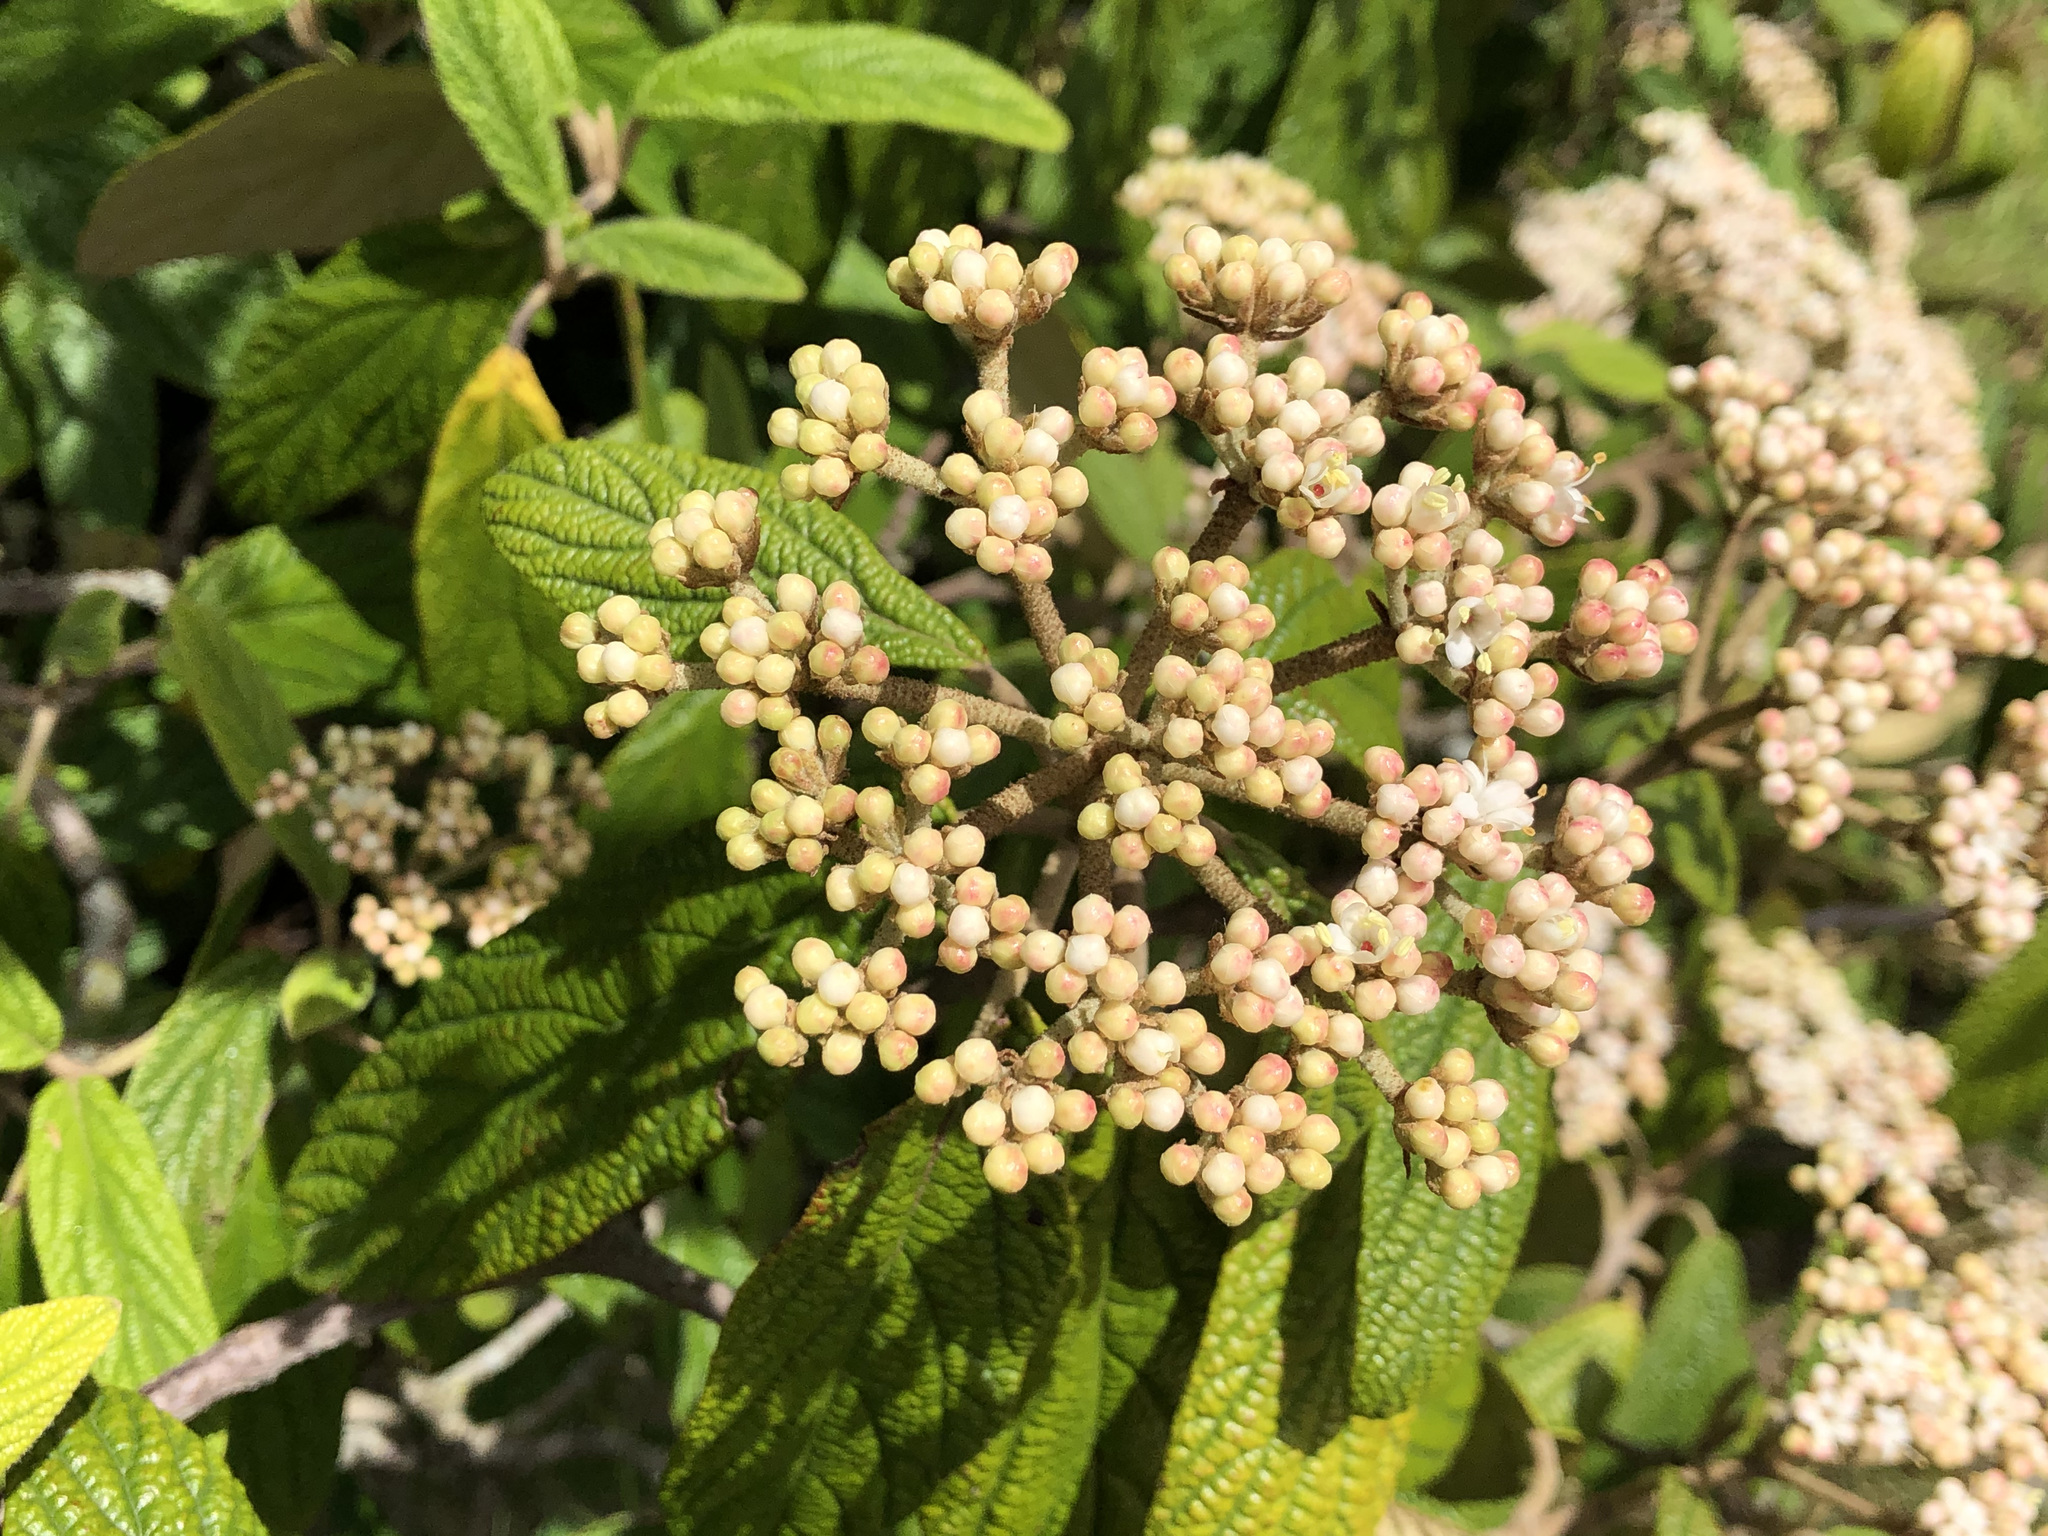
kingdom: Plantae
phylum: Tracheophyta
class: Magnoliopsida
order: Dipsacales
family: Viburnaceae
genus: Viburnum
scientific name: Viburnum rhytidophyllum
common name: Wrinkled viburnum
